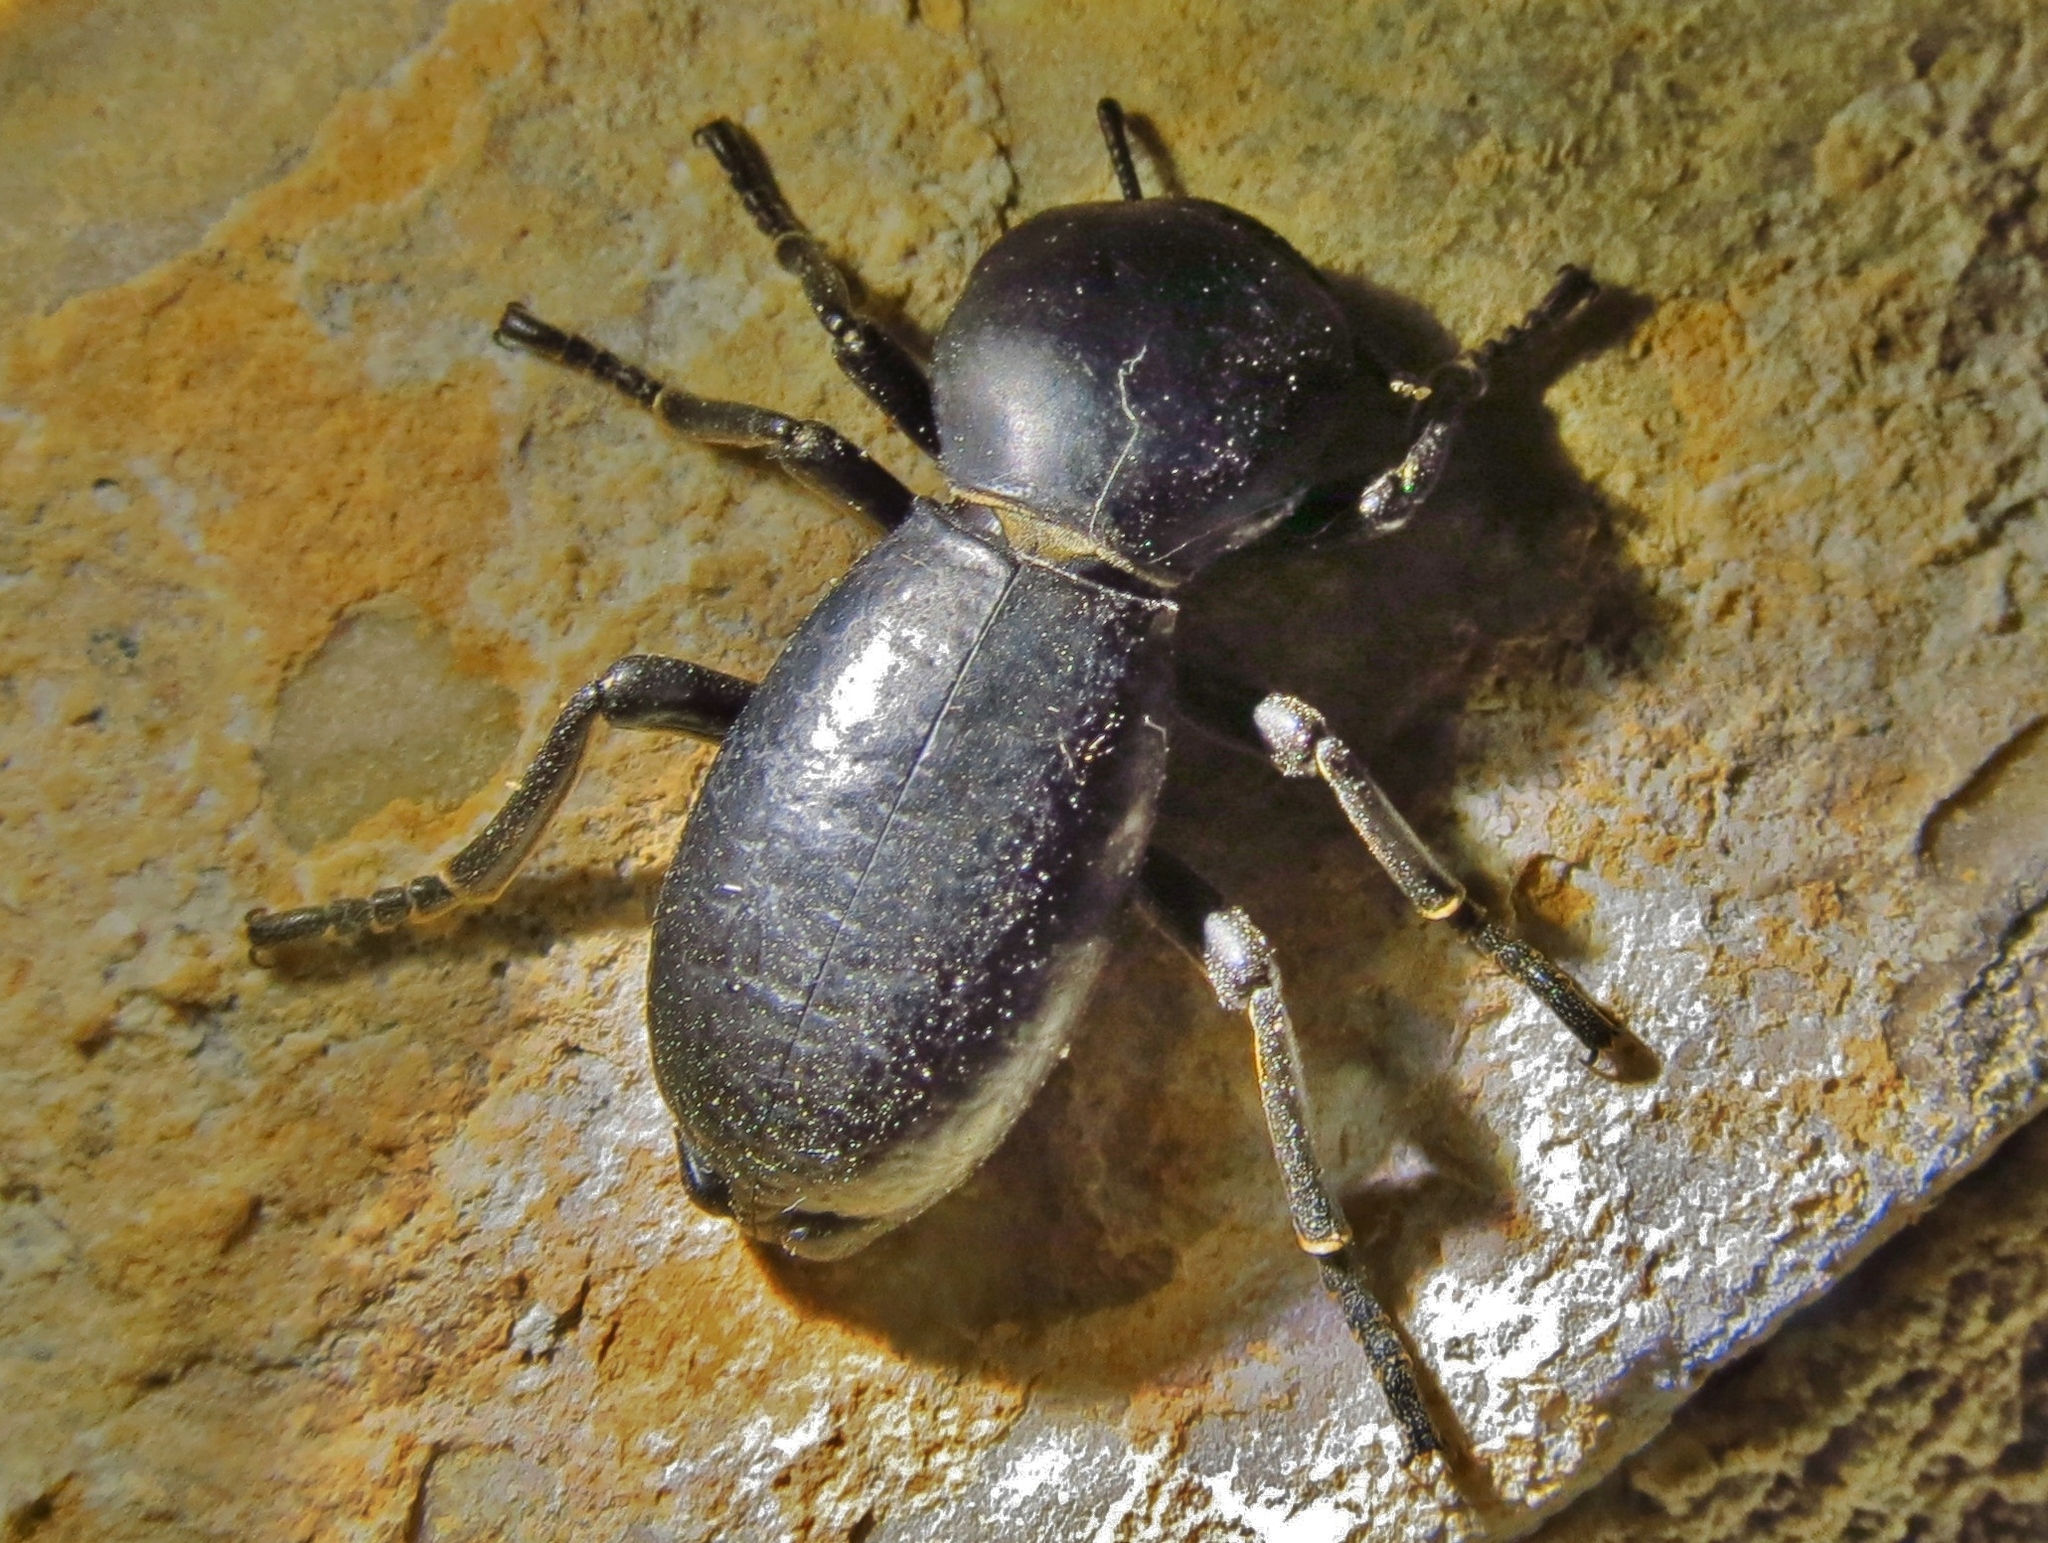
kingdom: Animalia
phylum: Arthropoda
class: Insecta
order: Coleoptera
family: Zopheridae
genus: Zopherus
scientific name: Zopherus xestus
